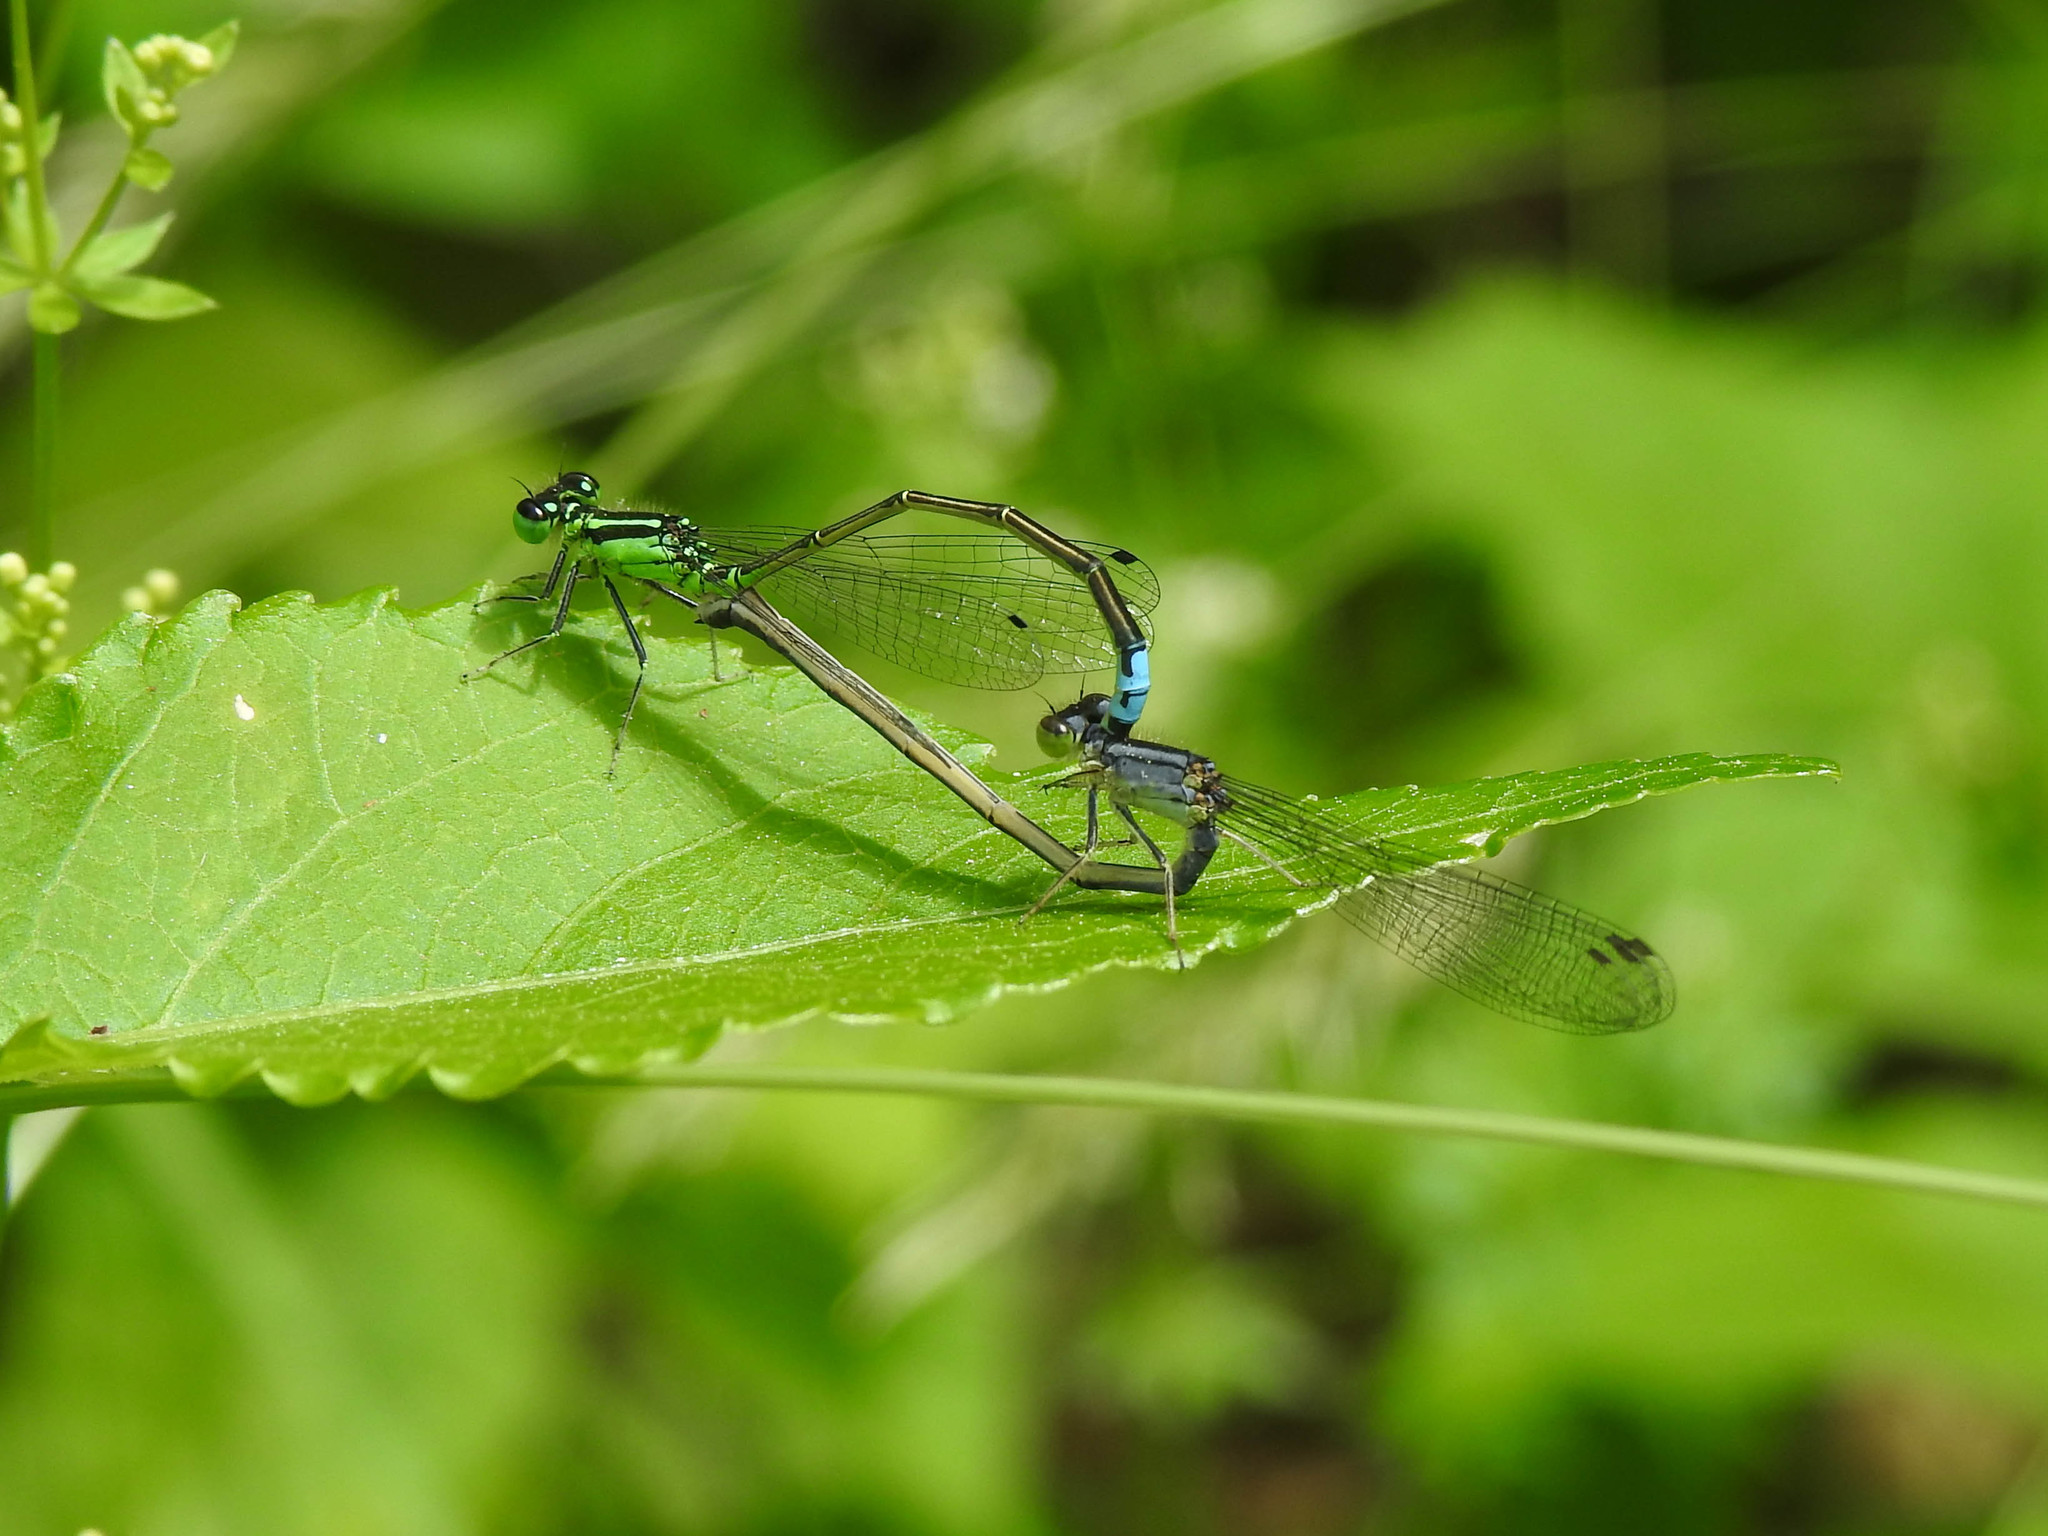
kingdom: Animalia
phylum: Arthropoda
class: Insecta
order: Odonata
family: Coenagrionidae
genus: Ischnura
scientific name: Ischnura verticalis
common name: Eastern forktail
